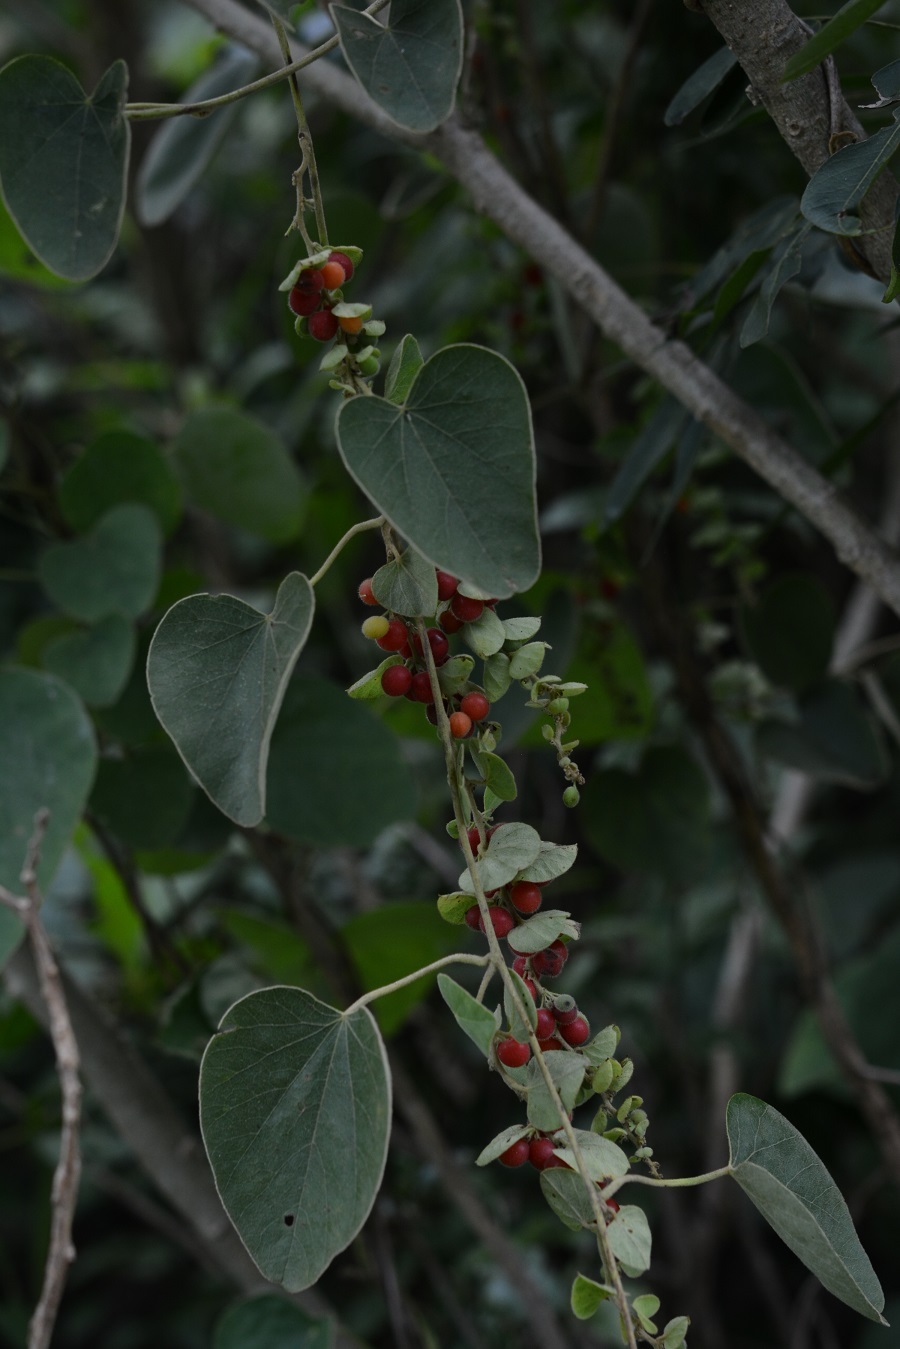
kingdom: Plantae
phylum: Tracheophyta
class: Magnoliopsida
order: Ranunculales
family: Menispermaceae
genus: Cissampelos
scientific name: Cissampelos pareira
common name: Velvetleaf
